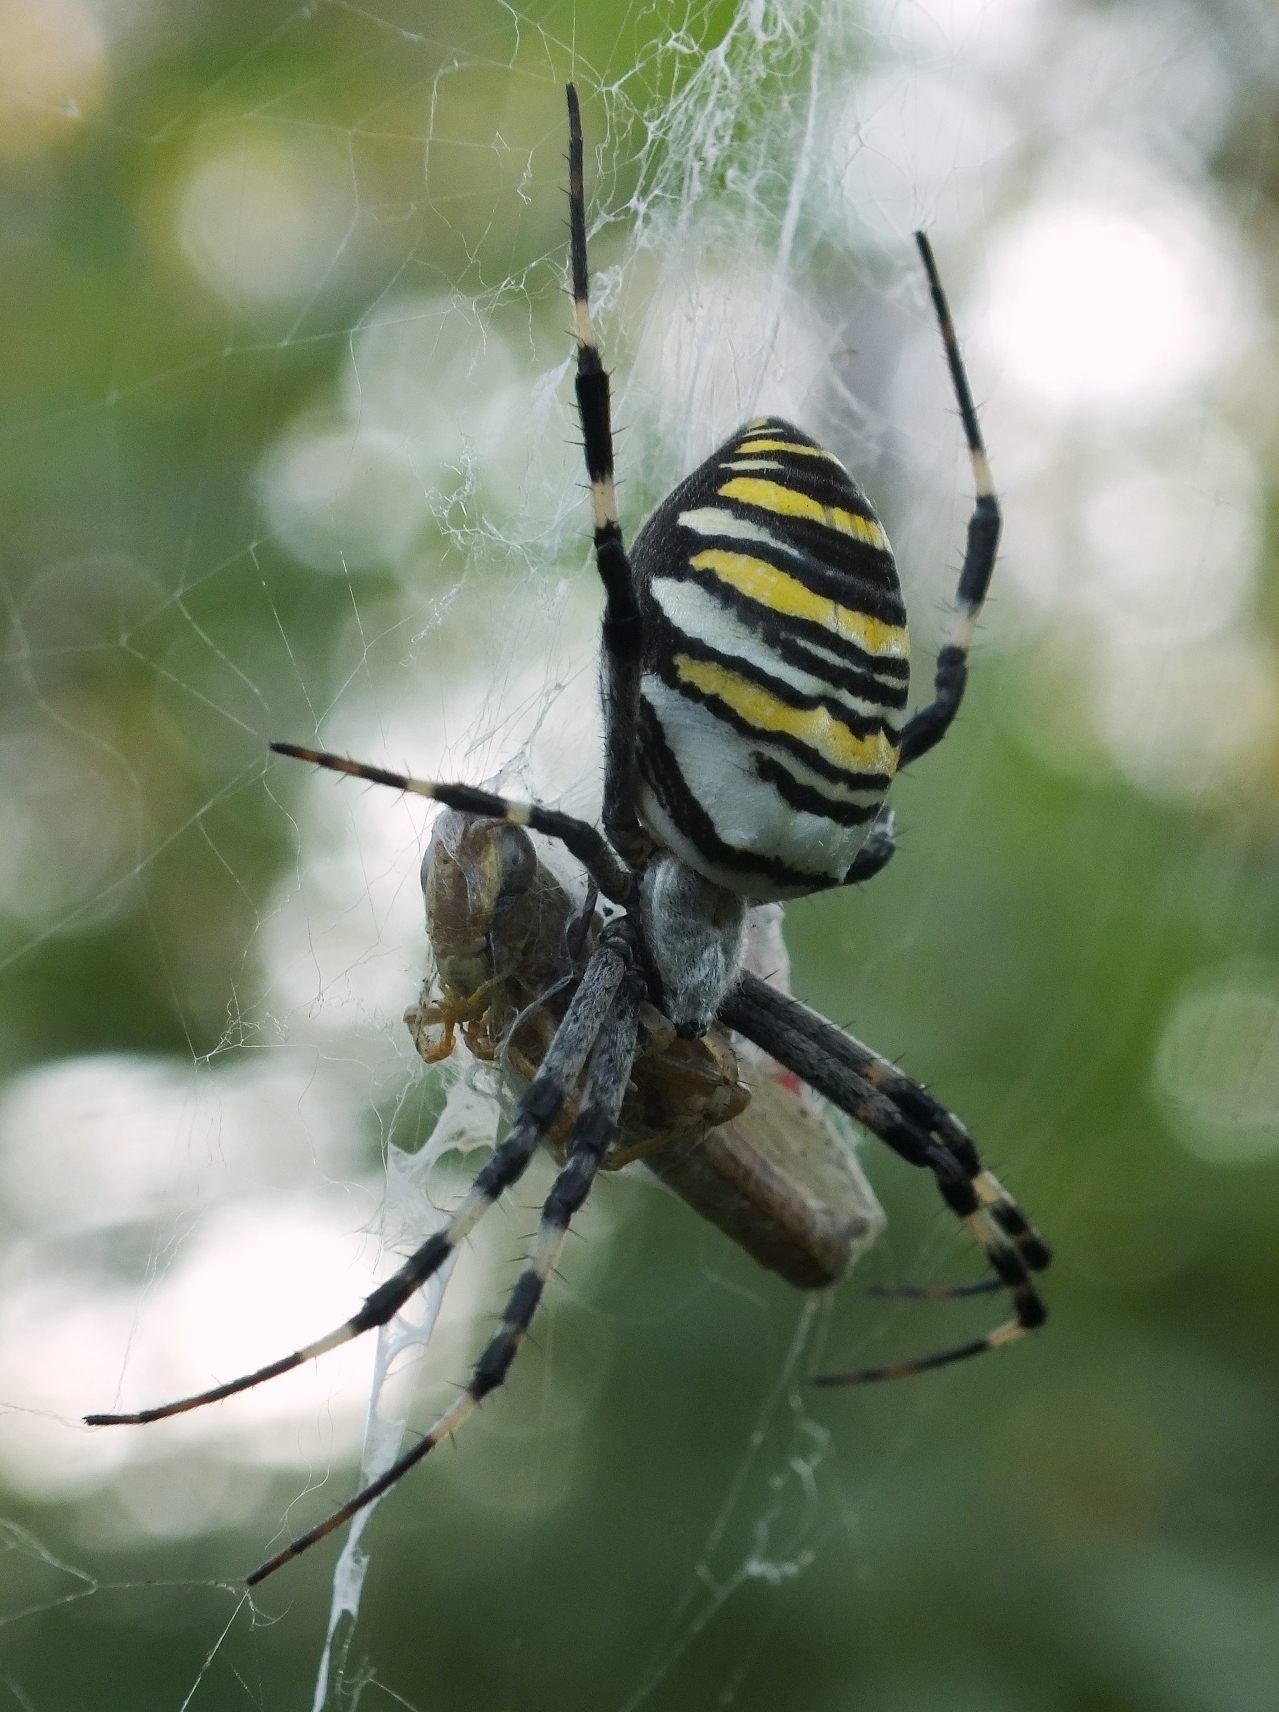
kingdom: Animalia
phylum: Arthropoda
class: Arachnida
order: Araneae
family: Araneidae
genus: Argiope
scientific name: Argiope bruennichi
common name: Wasp spider
